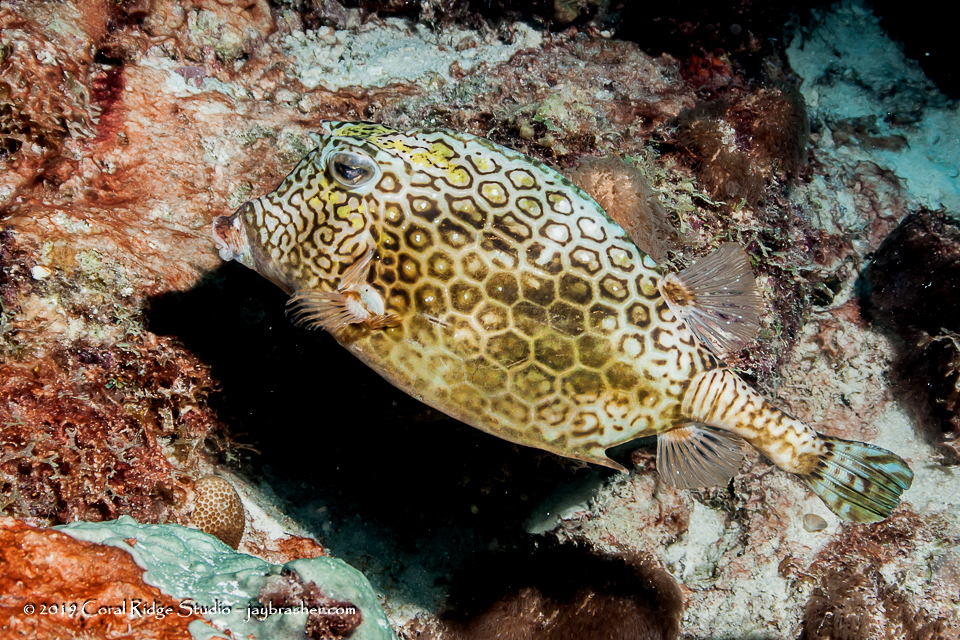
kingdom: Animalia
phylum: Chordata
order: Tetraodontiformes
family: Ostraciidae
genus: Acanthostracion
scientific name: Acanthostracion polygonius
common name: Honeycomb cowfish
